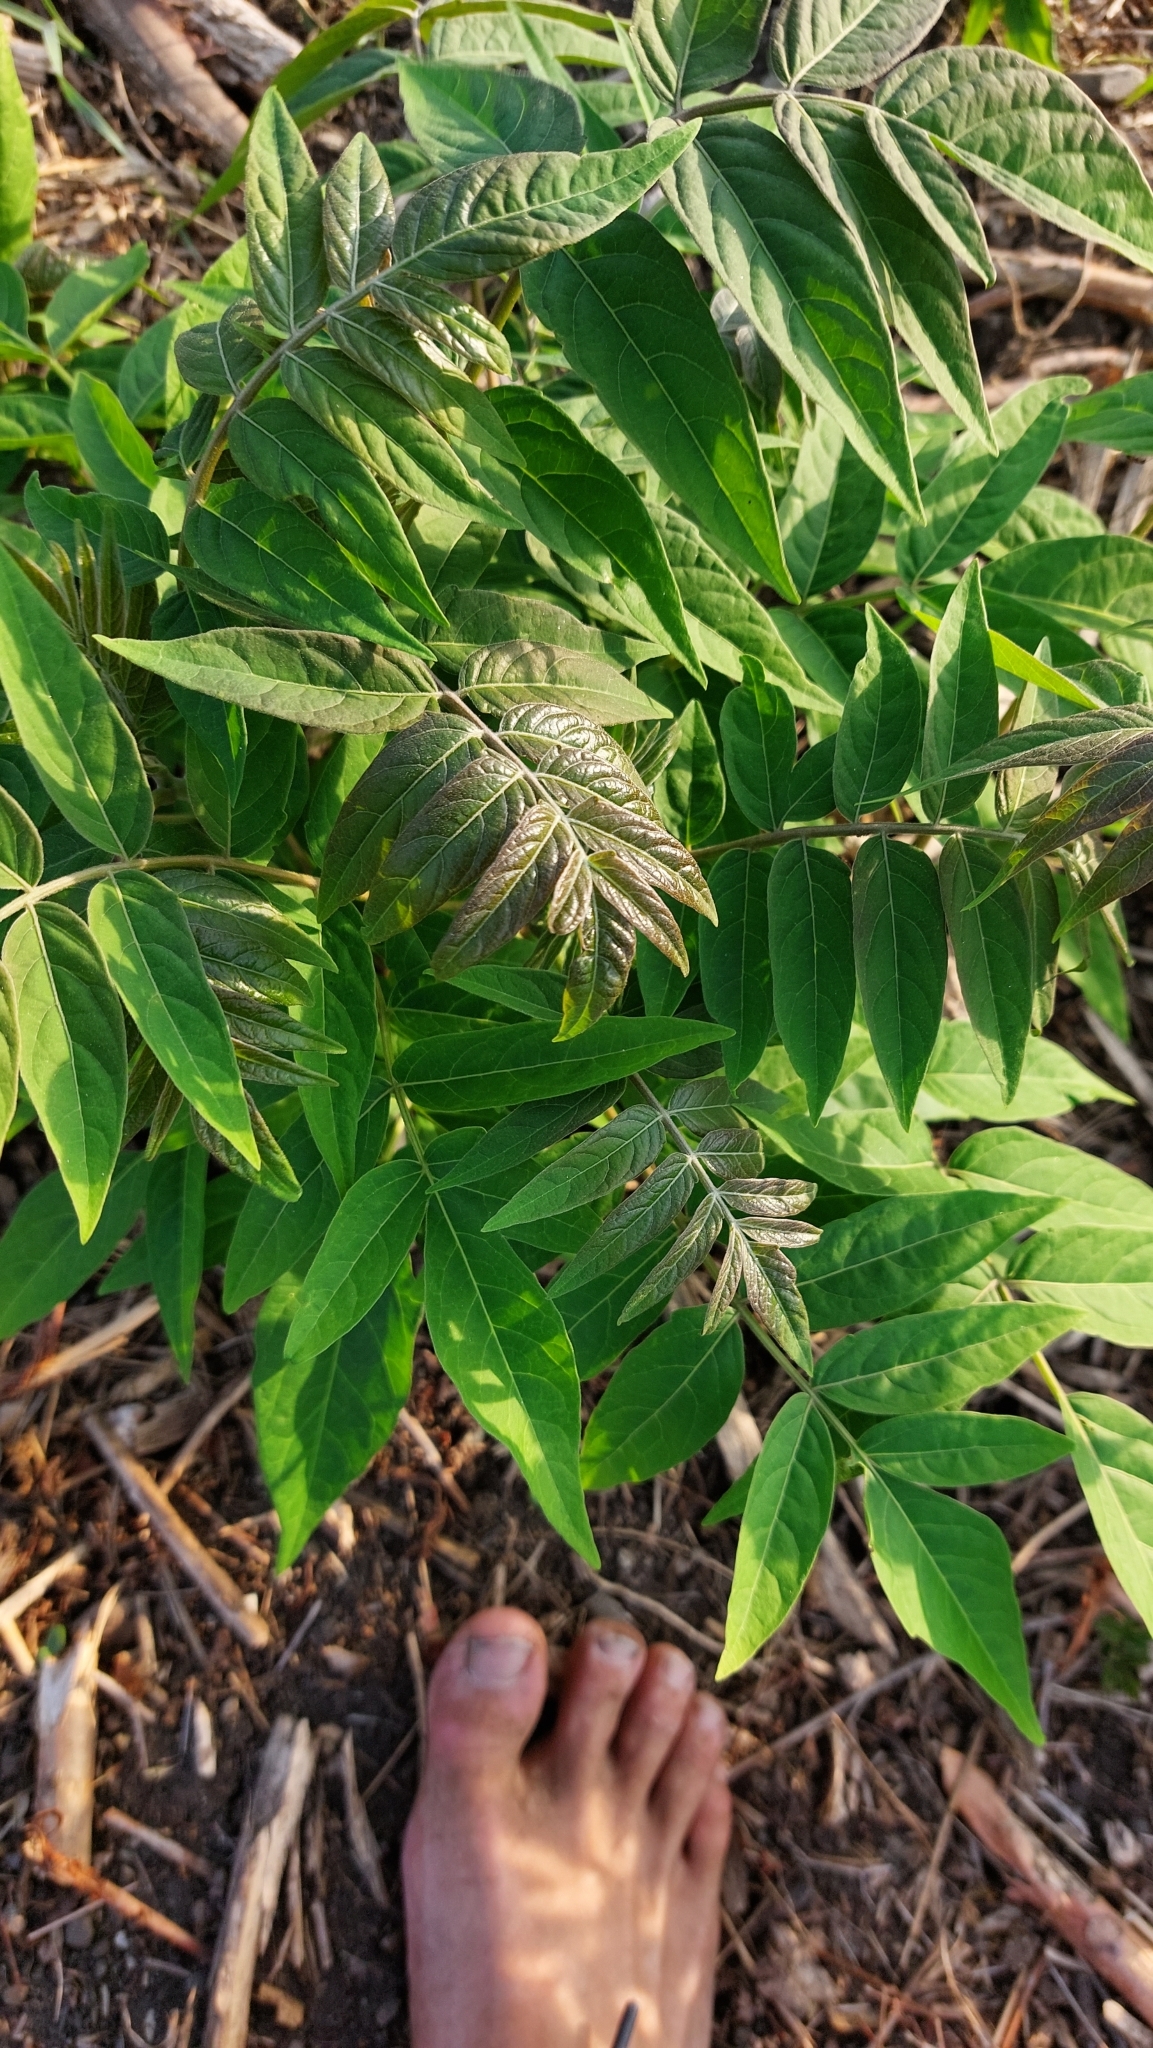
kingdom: Plantae
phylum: Tracheophyta
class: Magnoliopsida
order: Sapindales
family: Simaroubaceae
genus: Ailanthus
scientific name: Ailanthus altissima
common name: Tree-of-heaven
